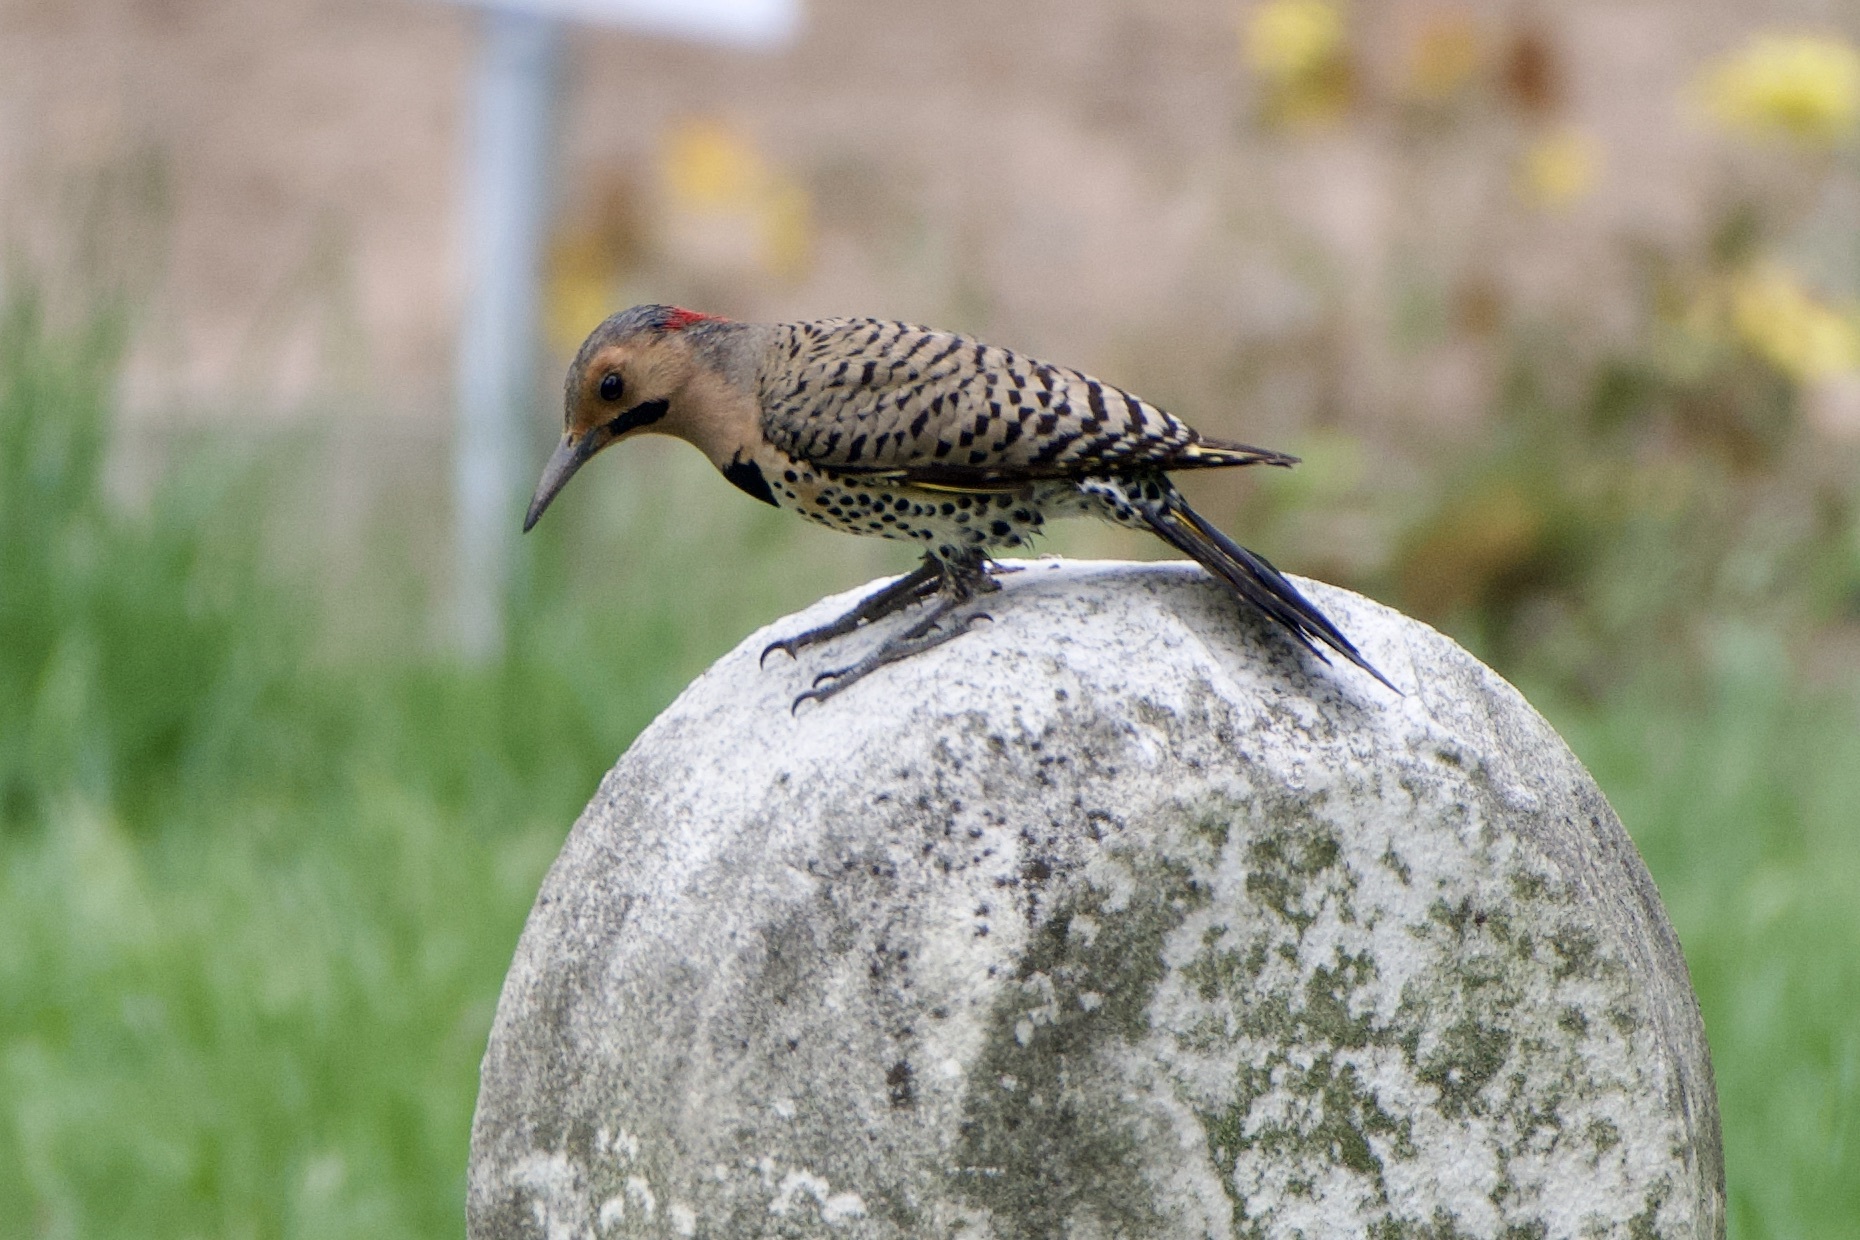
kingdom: Animalia
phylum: Chordata
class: Aves
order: Piciformes
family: Picidae
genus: Colaptes
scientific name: Colaptes auratus
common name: Northern flicker
